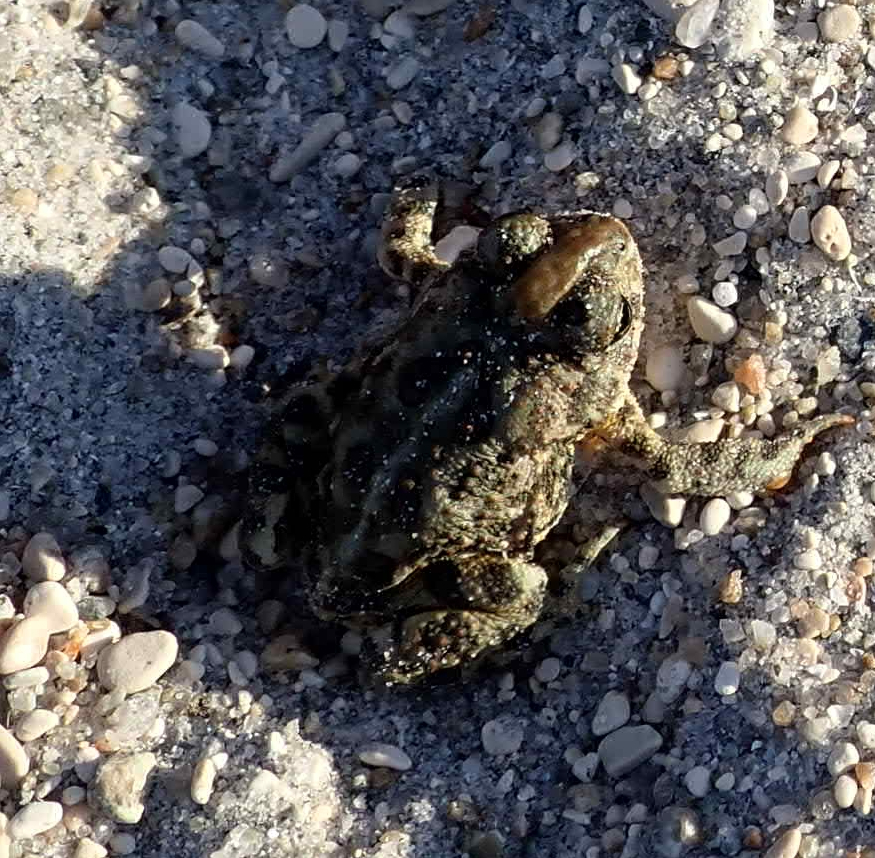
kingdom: Animalia
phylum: Chordata
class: Amphibia
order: Anura
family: Bufonidae
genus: Anaxyrus
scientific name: Anaxyrus hemiophrys
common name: Canadian toad
